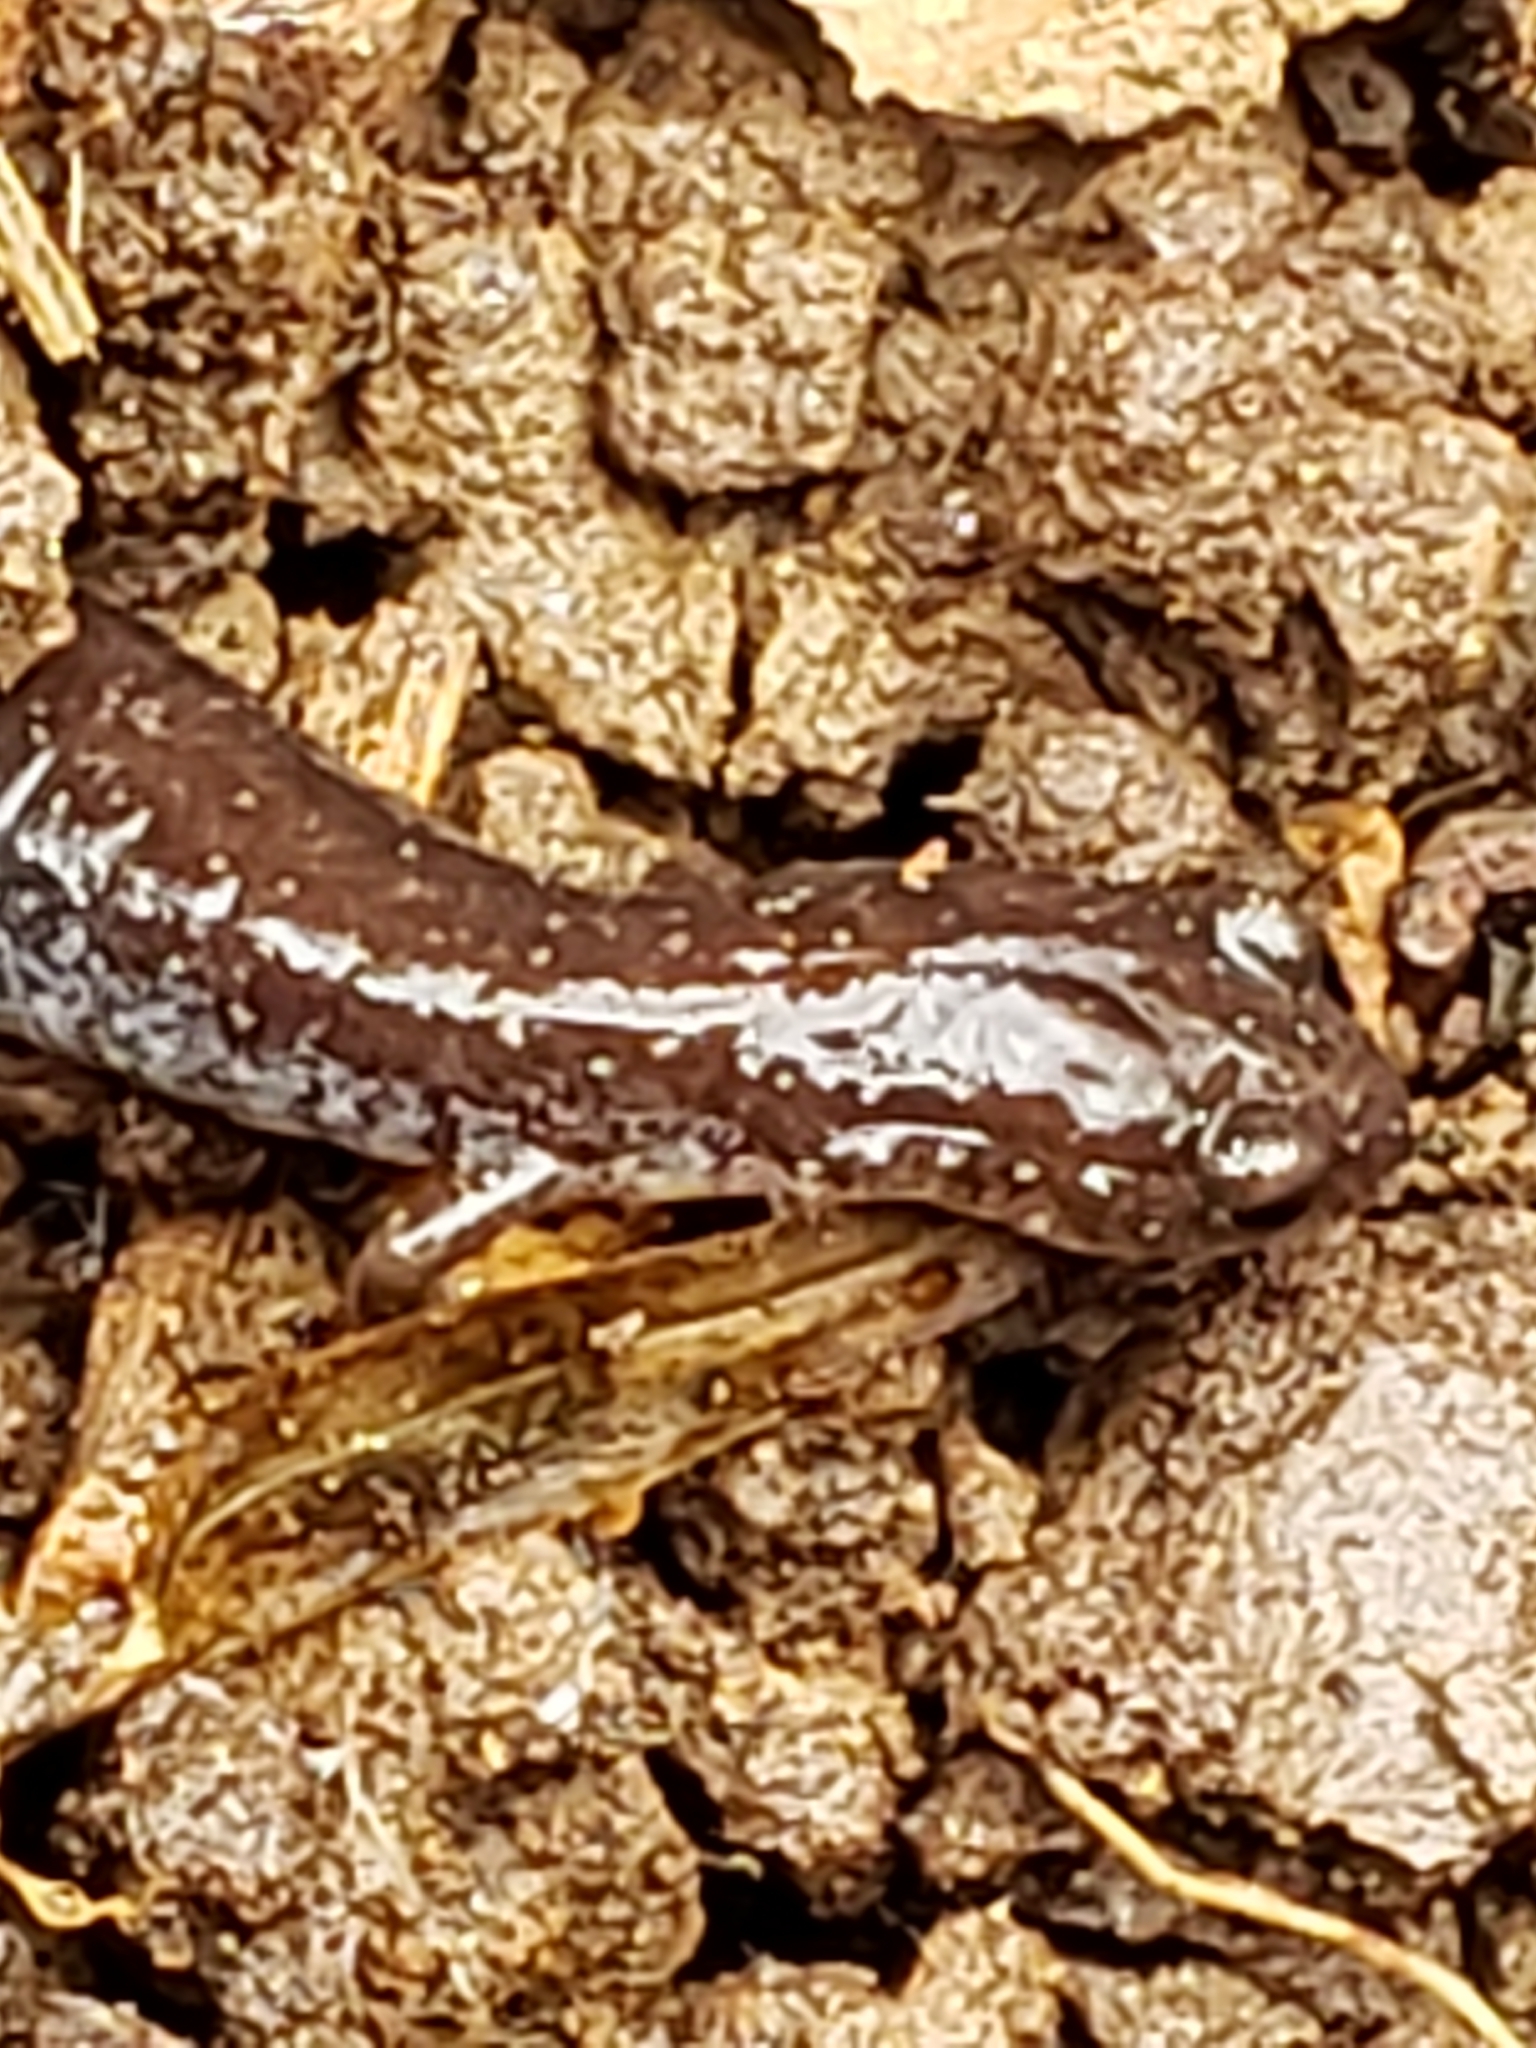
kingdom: Animalia
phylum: Chordata
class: Amphibia
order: Caudata
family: Plethodontidae
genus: Plethodon
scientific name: Plethodon cinereus
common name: Redback salamander
